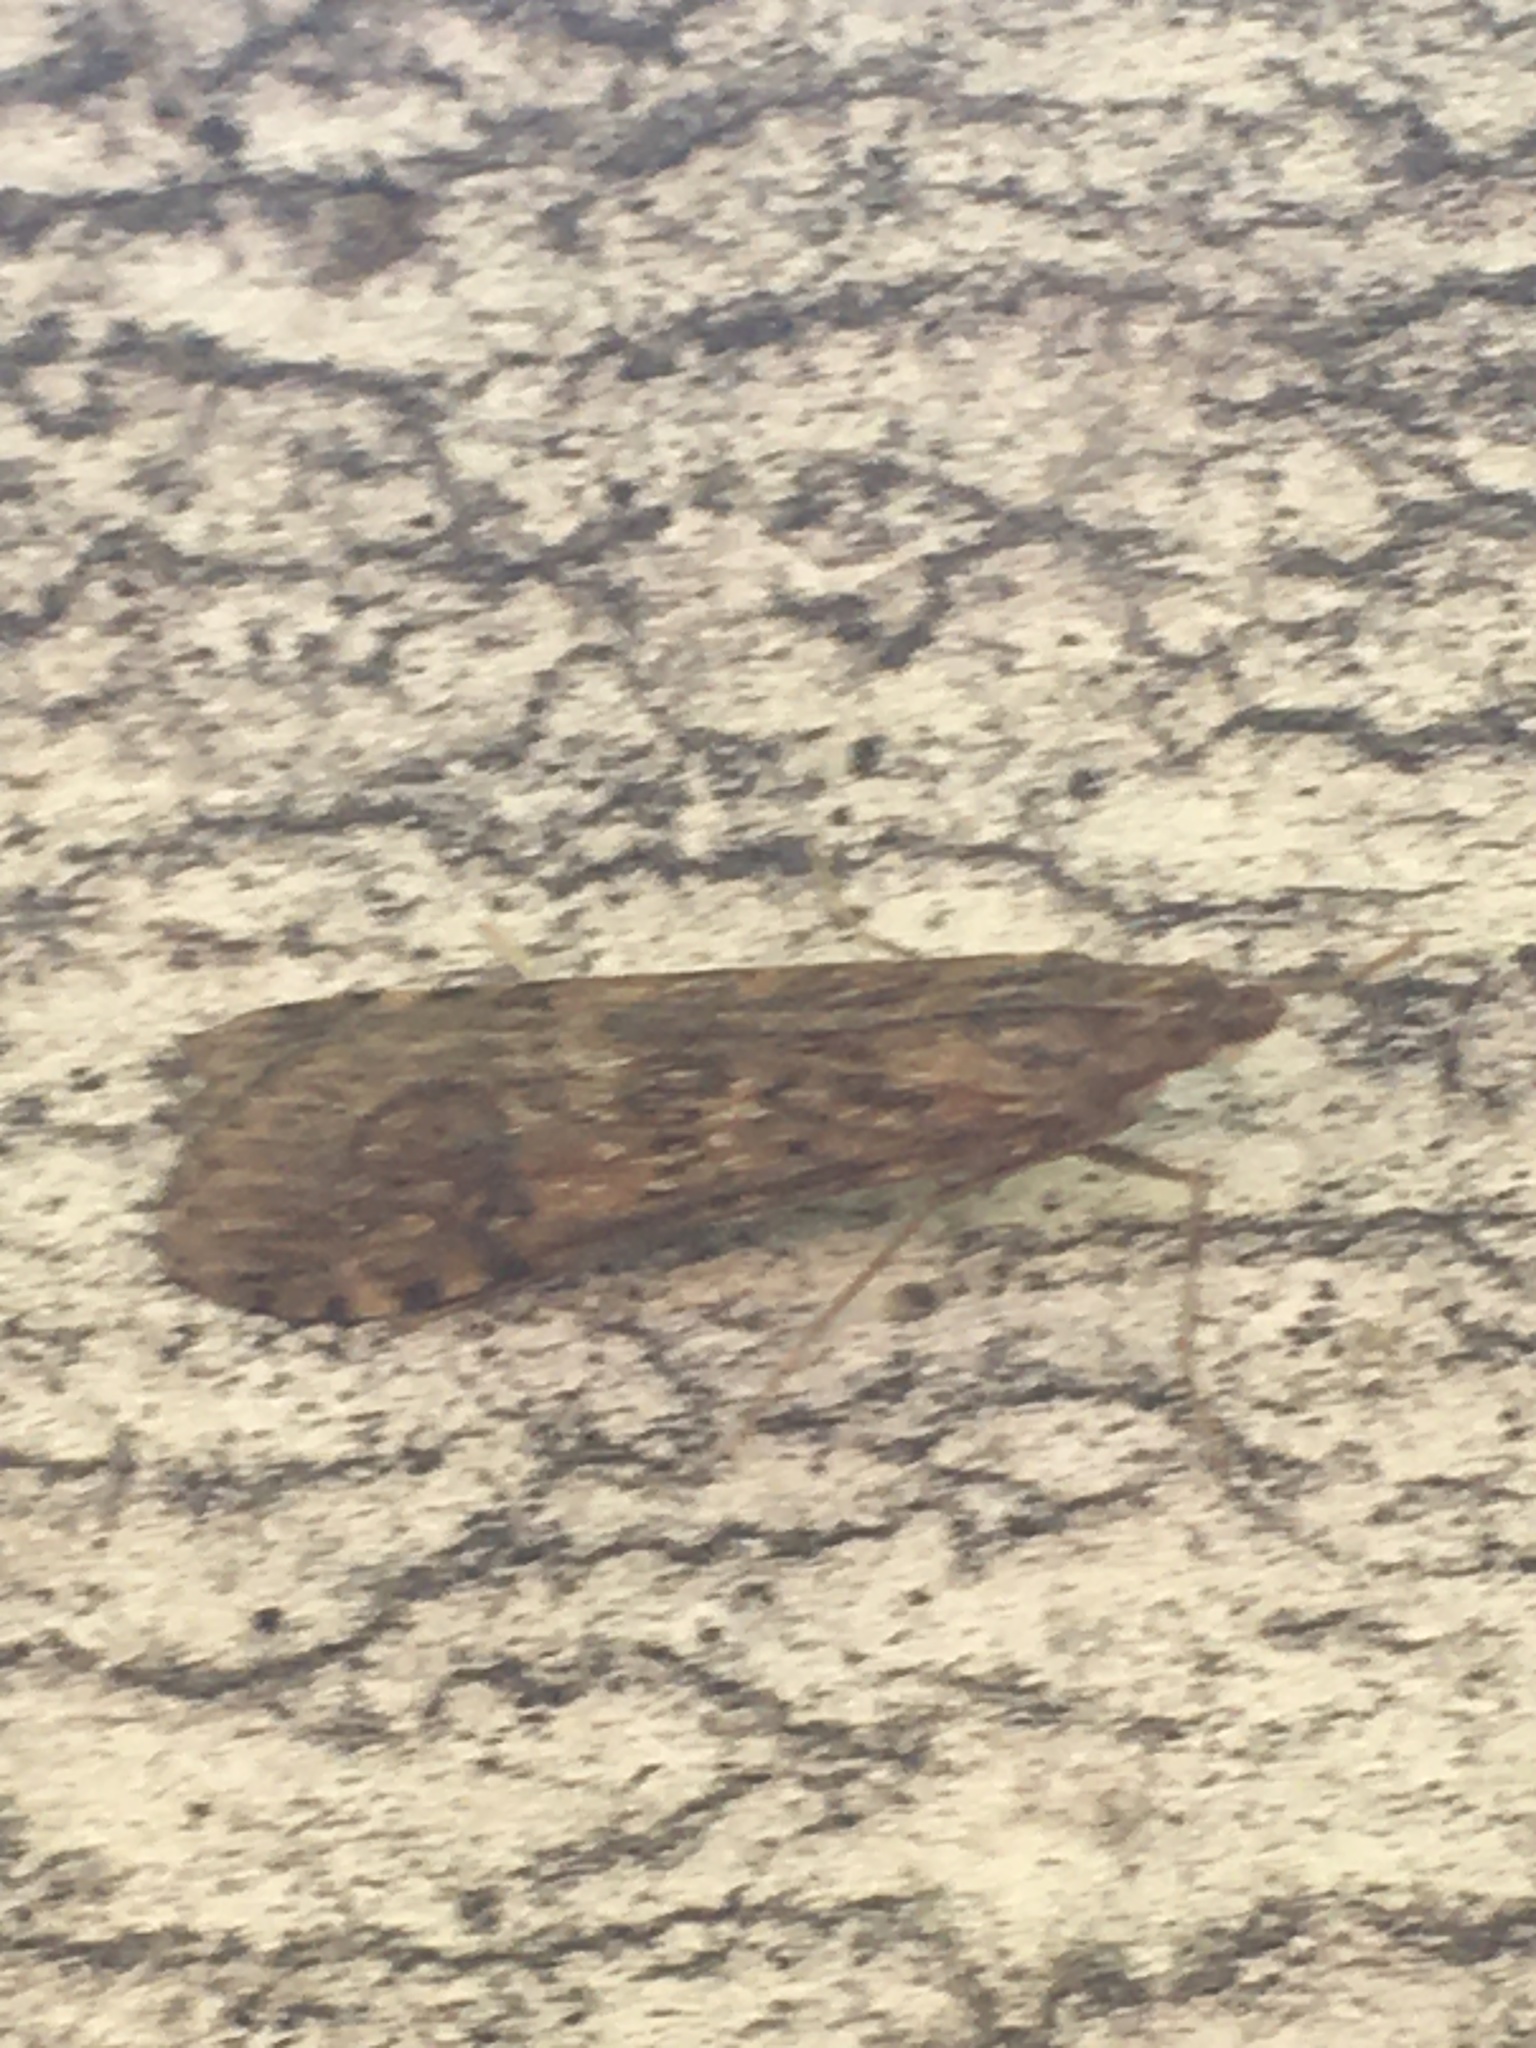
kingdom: Animalia
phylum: Arthropoda
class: Insecta
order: Lepidoptera
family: Crambidae
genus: Nomophila
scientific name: Nomophila noctuella
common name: Rush veneer
